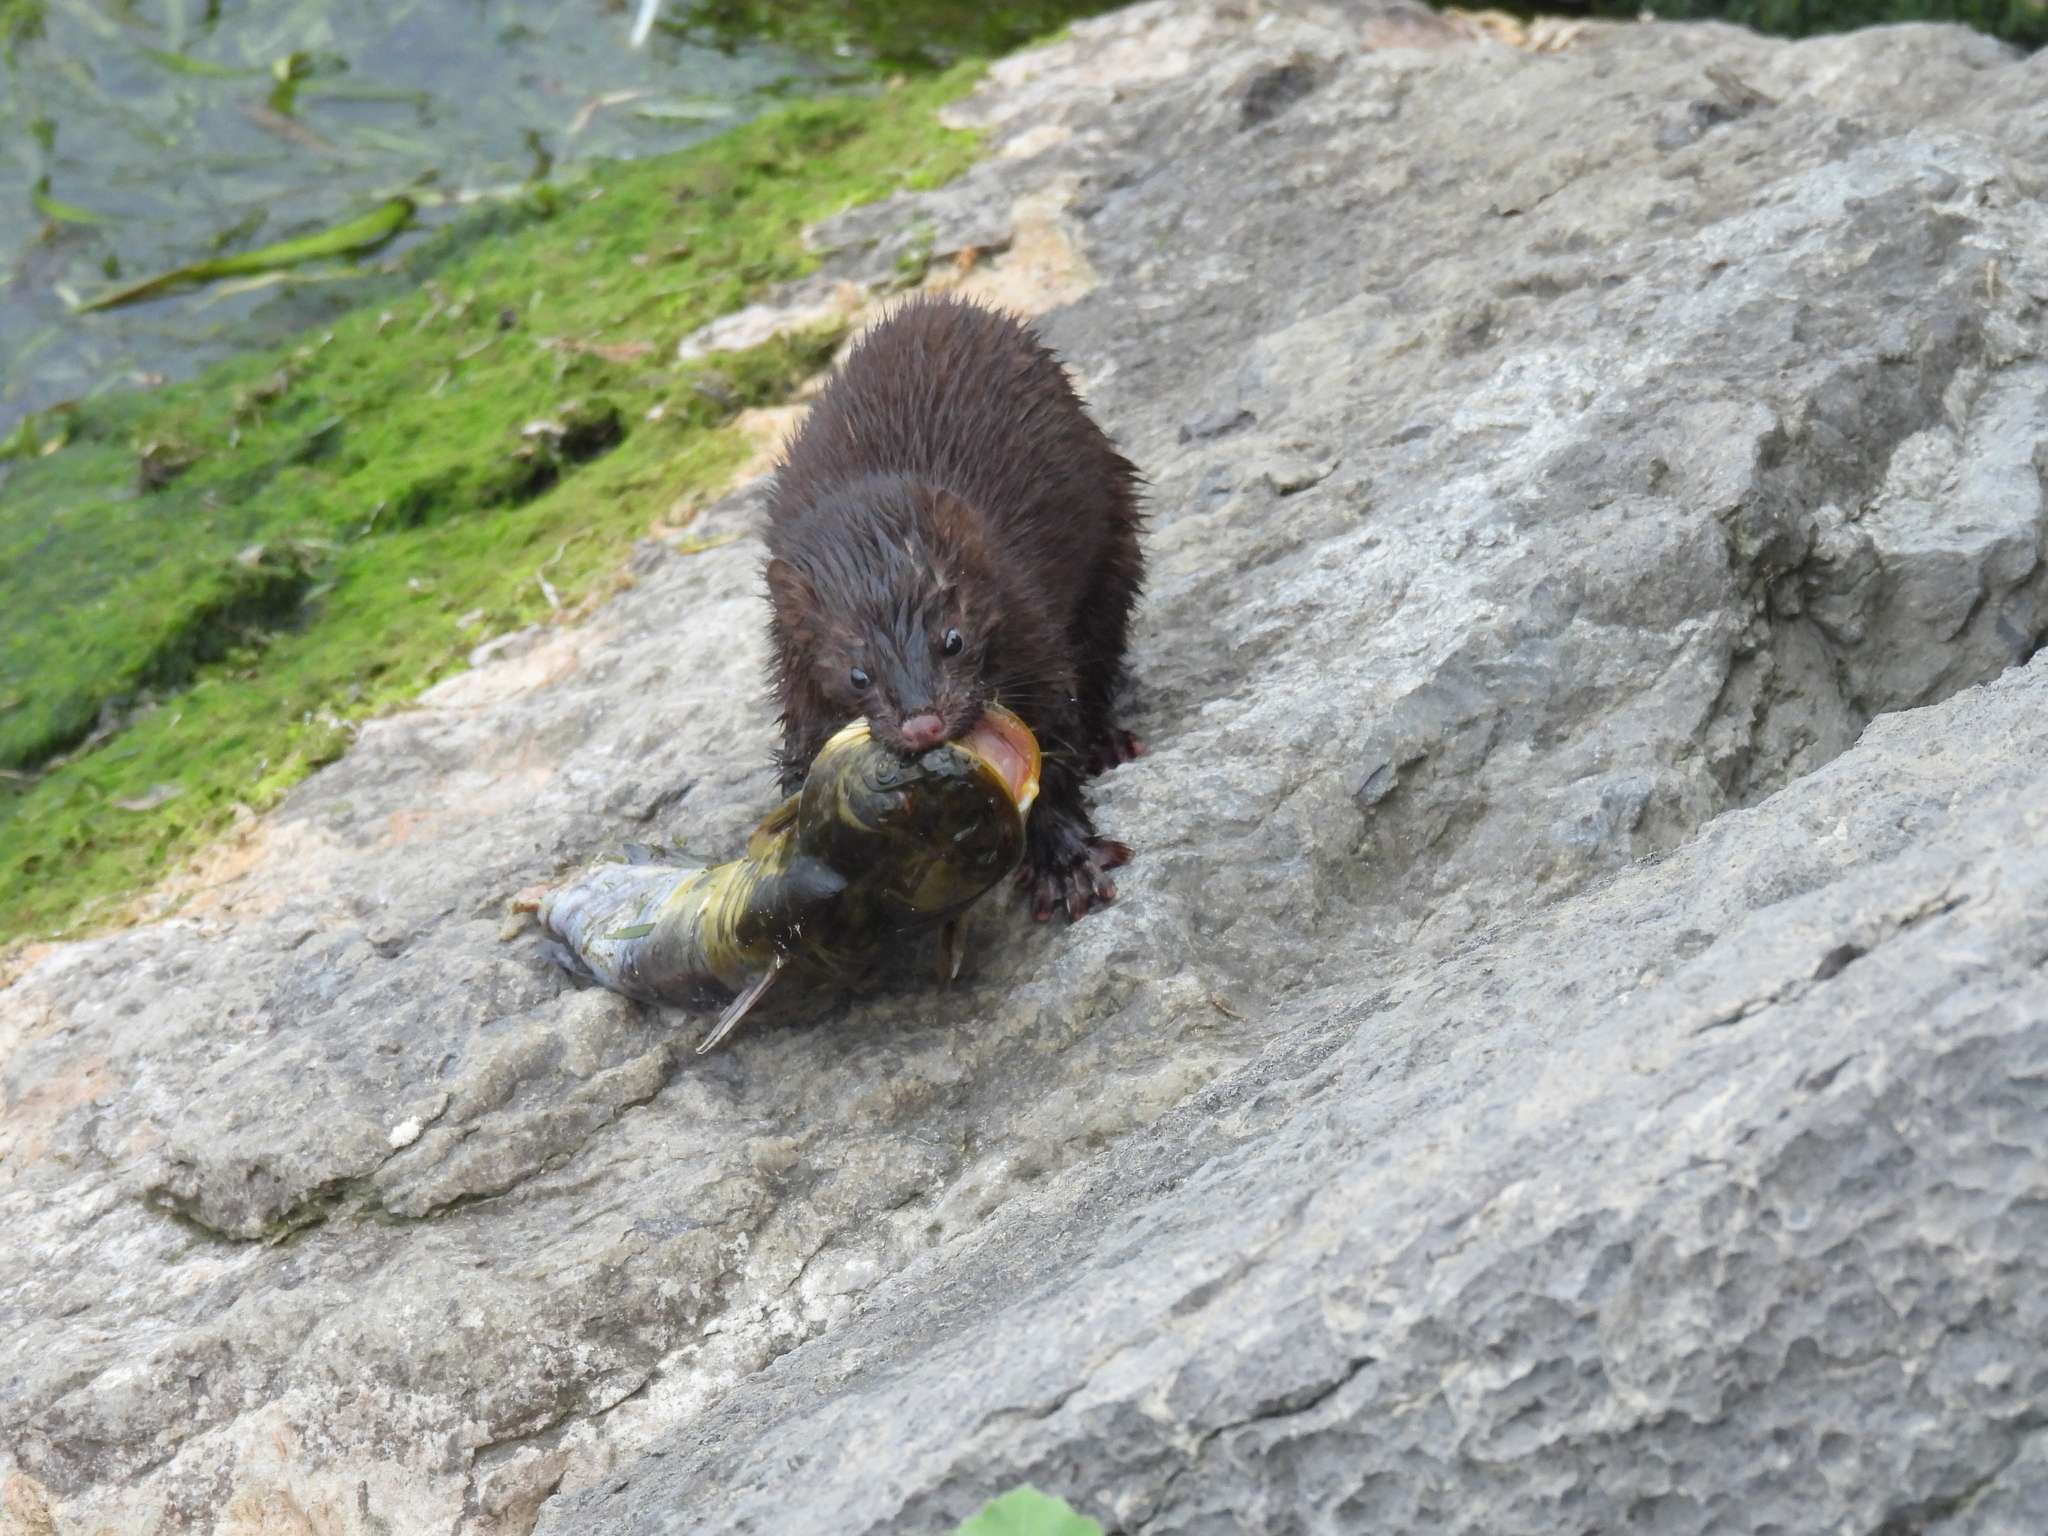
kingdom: Animalia
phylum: Chordata
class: Mammalia
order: Carnivora
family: Mustelidae
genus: Mustela
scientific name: Mustela
